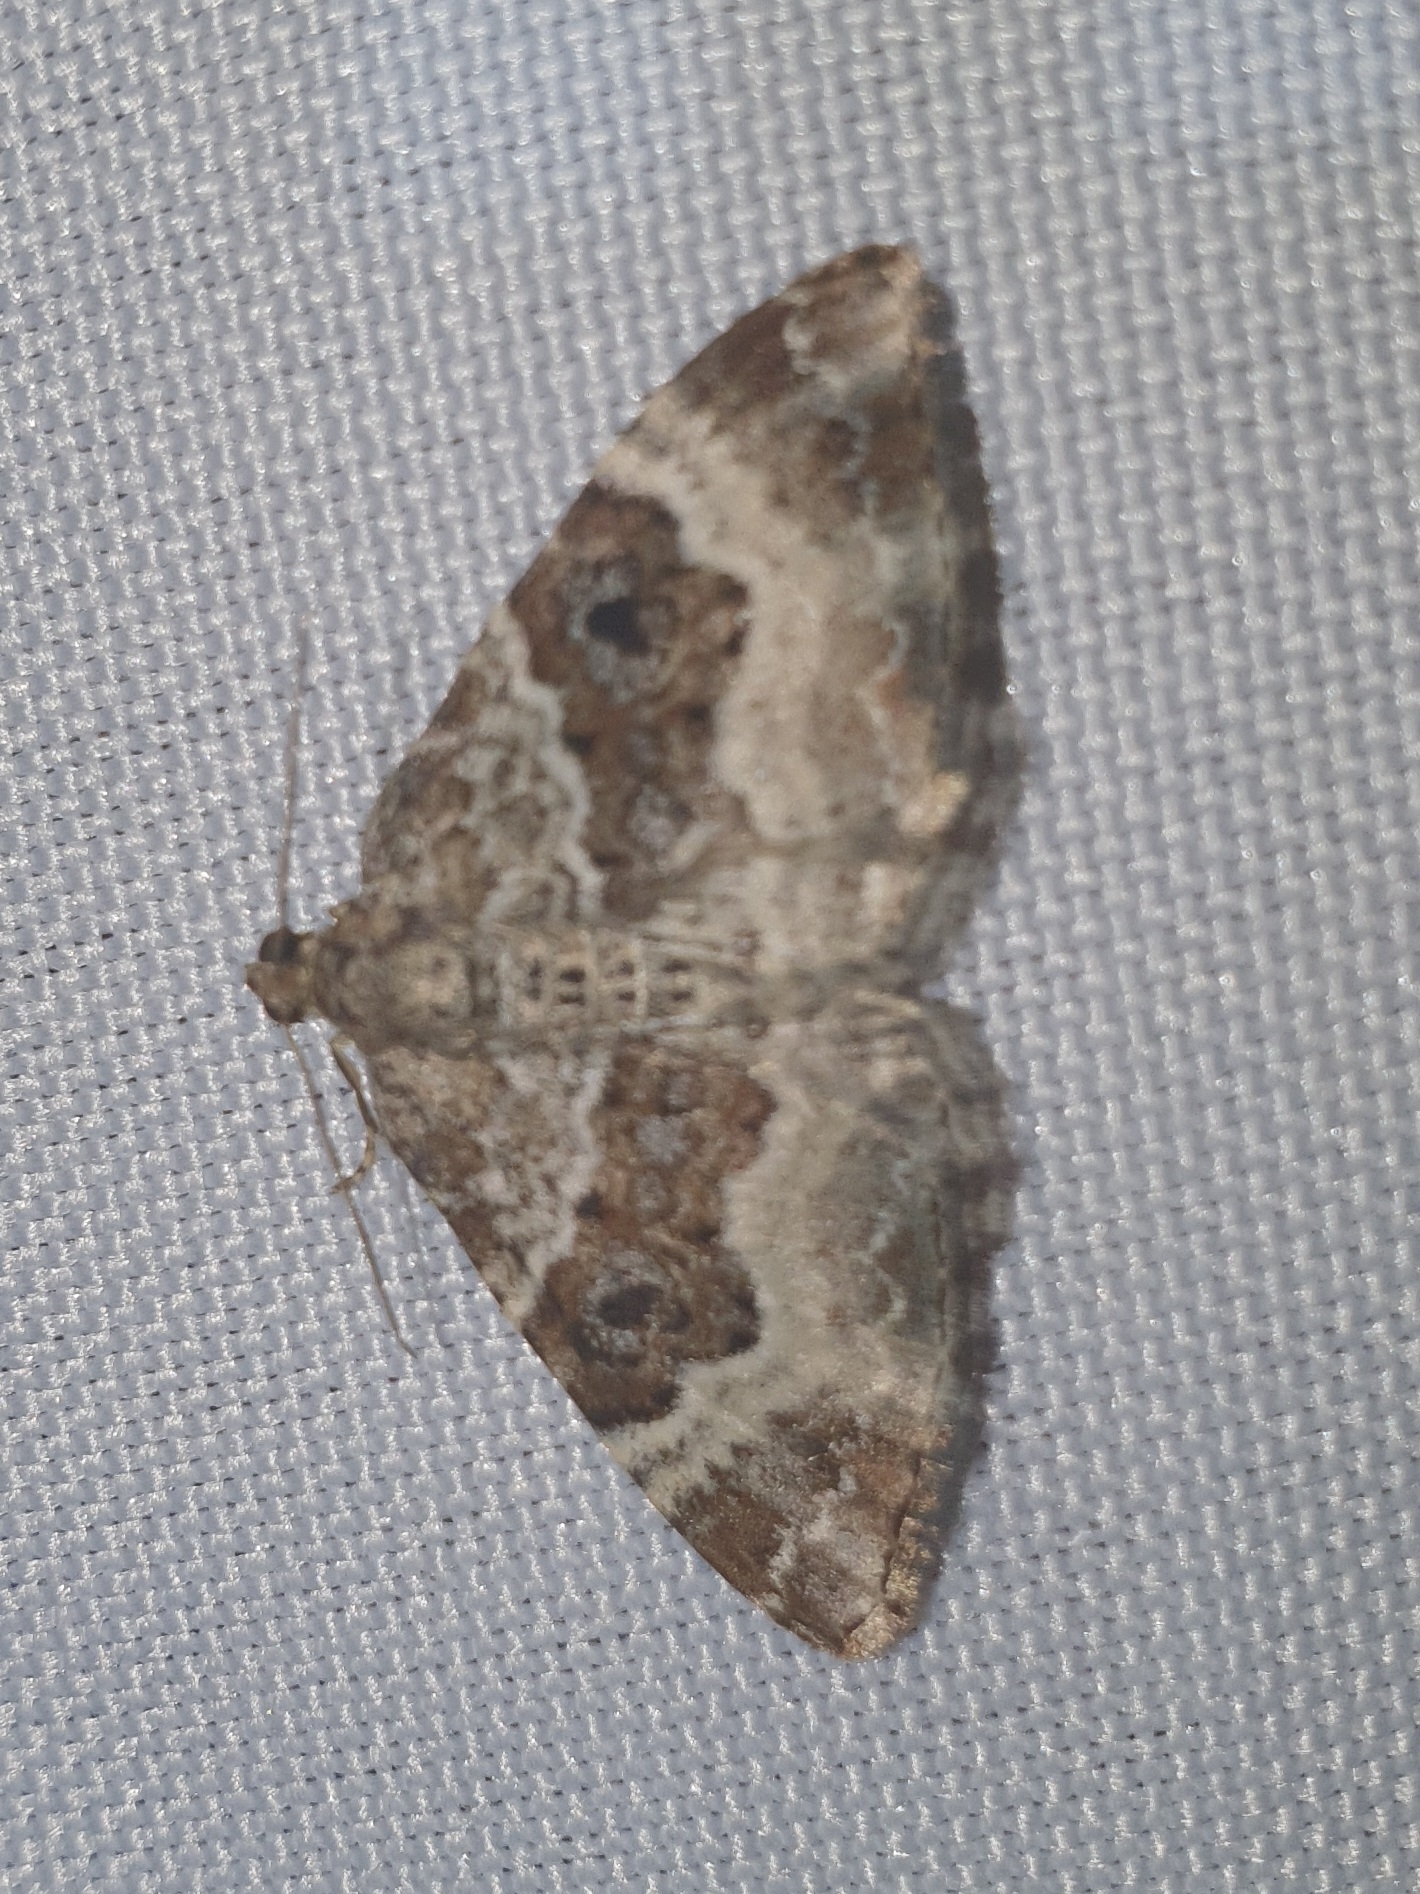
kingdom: Animalia
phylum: Arthropoda
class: Insecta
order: Lepidoptera
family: Geometridae
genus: Epirrhoe
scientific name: Epirrhoe alternata
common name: Common carpet
